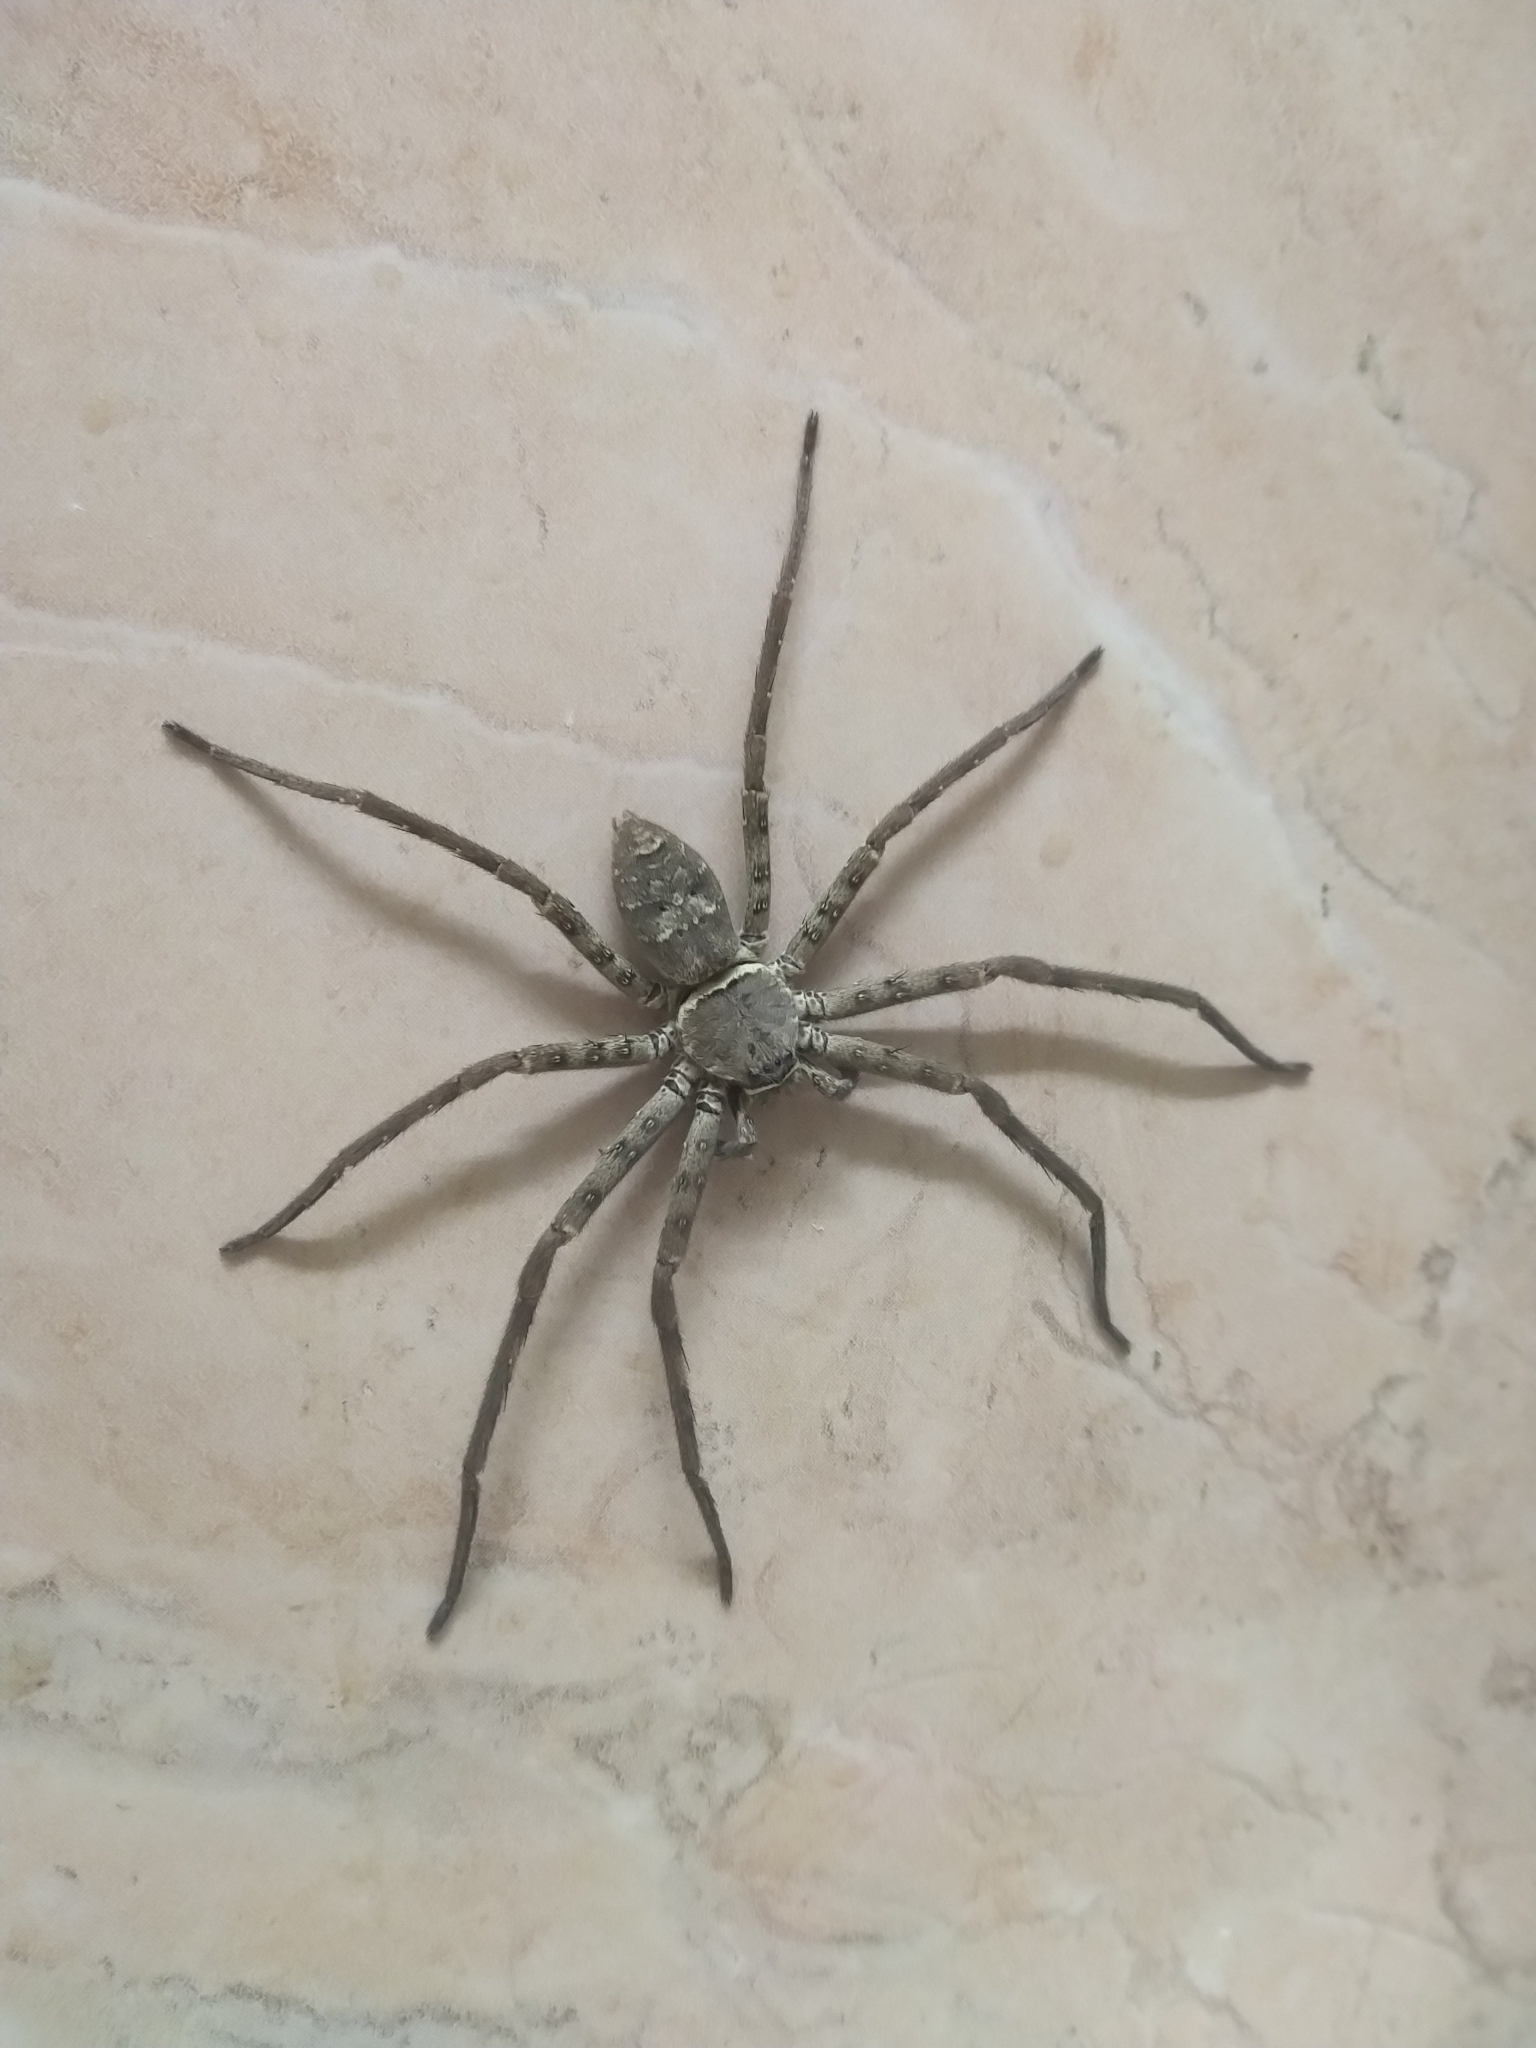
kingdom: Animalia
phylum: Arthropoda
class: Arachnida
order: Araneae
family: Sparassidae
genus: Heteropoda
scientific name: Heteropoda venatoria
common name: Huntsman spider
